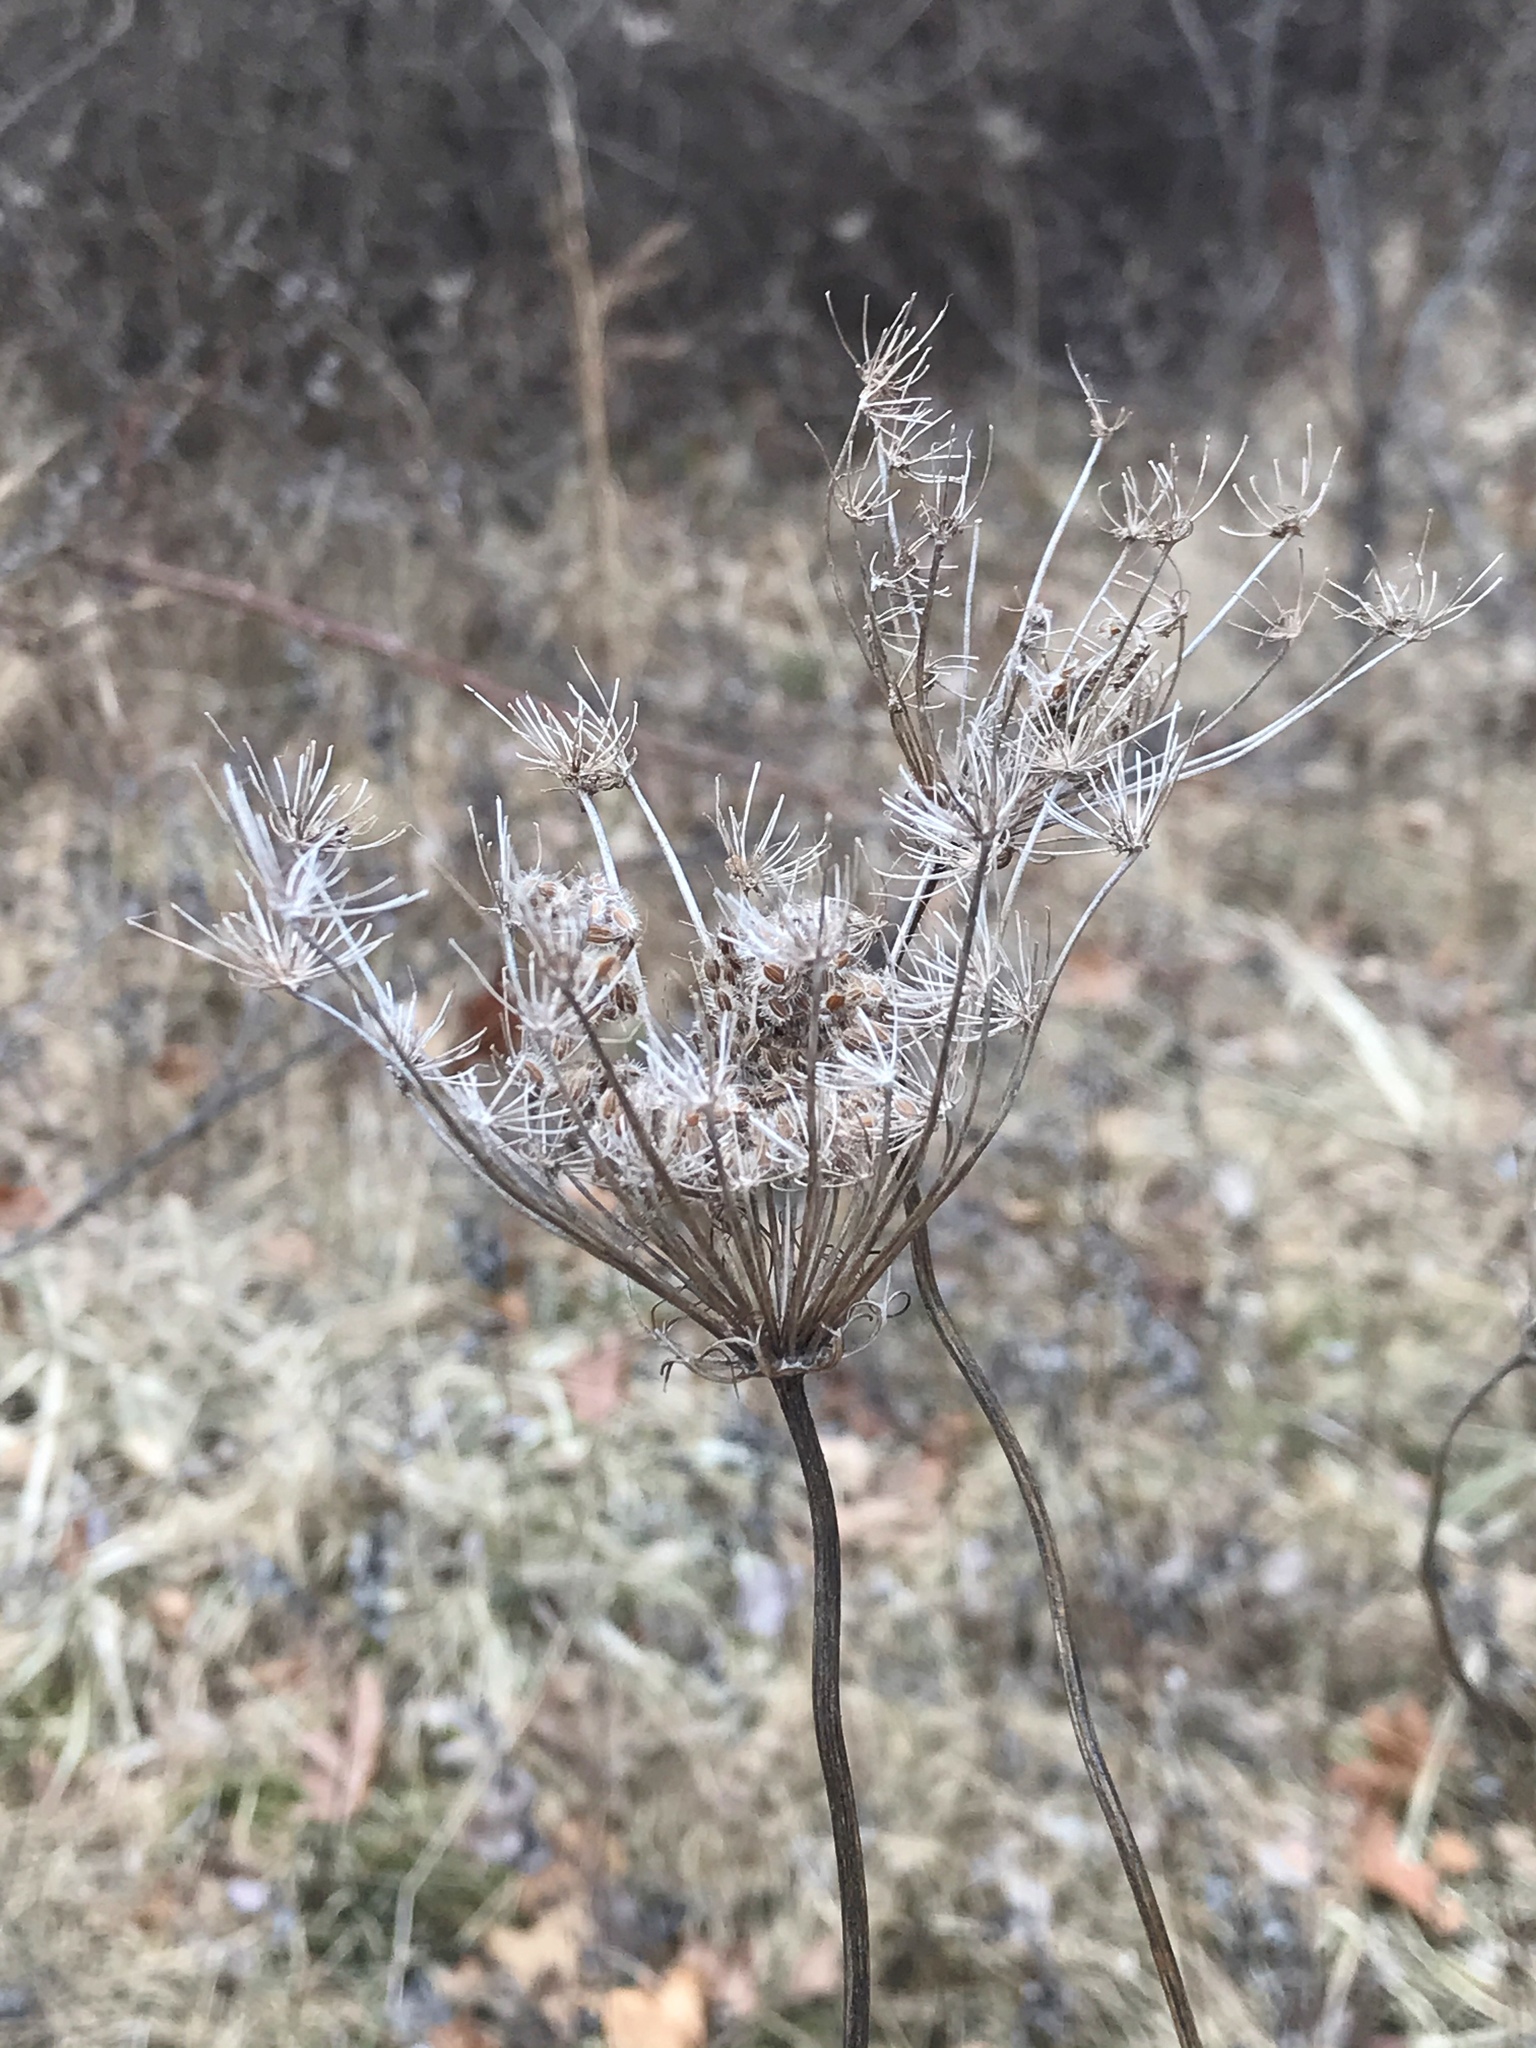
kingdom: Plantae
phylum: Tracheophyta
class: Magnoliopsida
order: Apiales
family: Apiaceae
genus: Daucus
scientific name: Daucus carota
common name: Wild carrot
